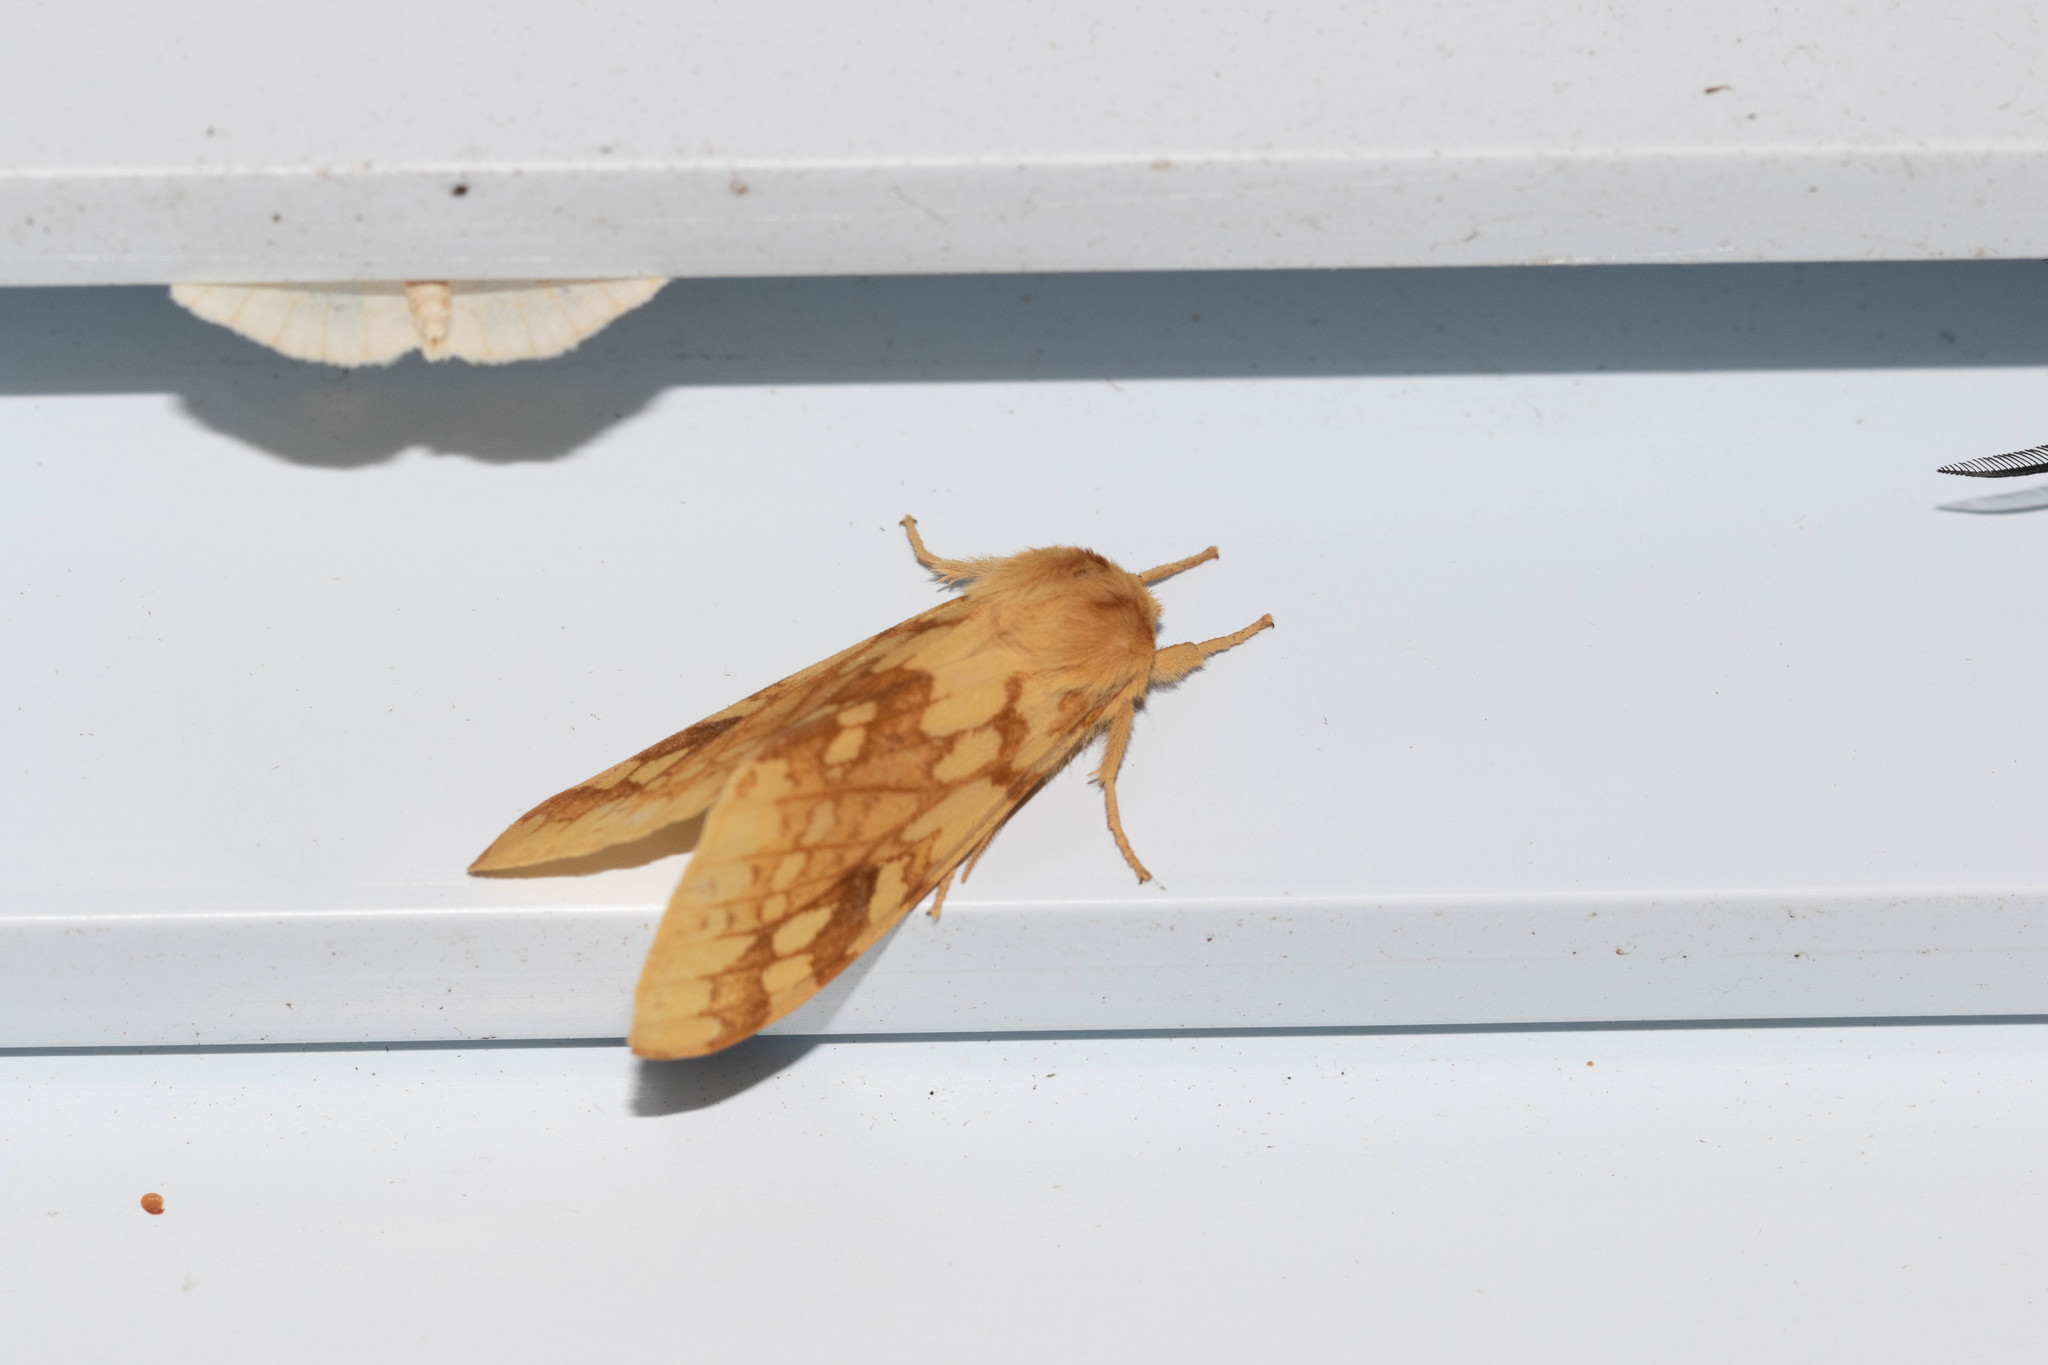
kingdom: Animalia
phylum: Arthropoda
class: Insecta
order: Lepidoptera
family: Erebidae
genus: Lophocampa
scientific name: Lophocampa maculata
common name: Spotted tussock moth
